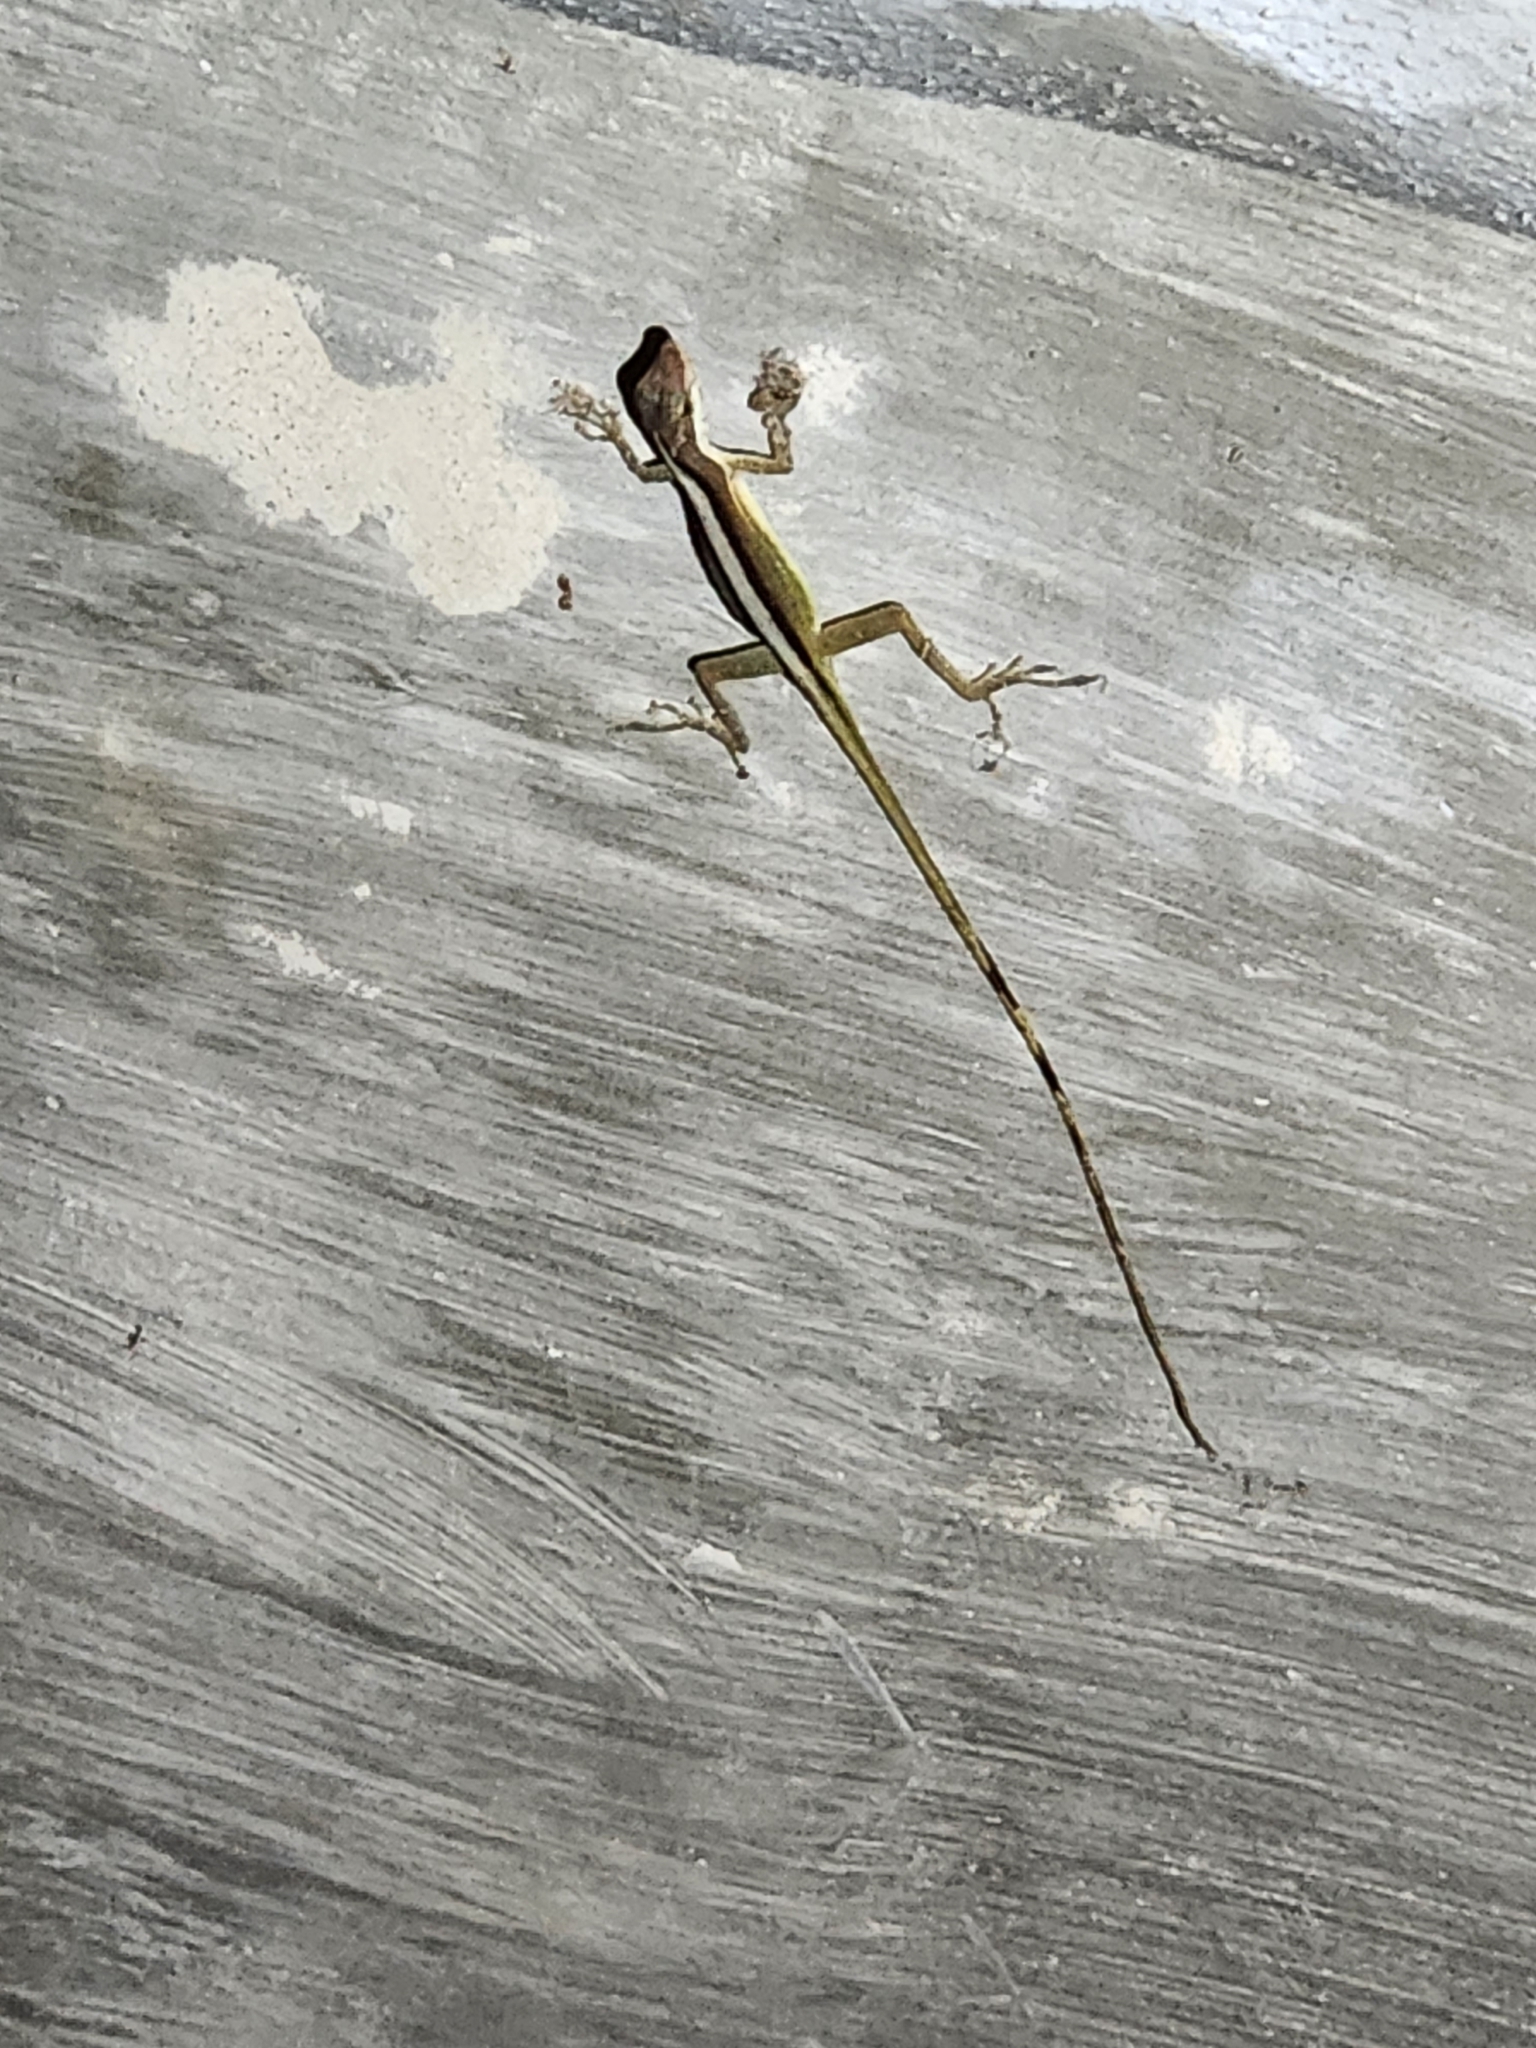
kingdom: Animalia
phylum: Chordata
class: Squamata
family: Dactyloidae
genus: Anolis
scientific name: Anolis limifrons
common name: Border anole
